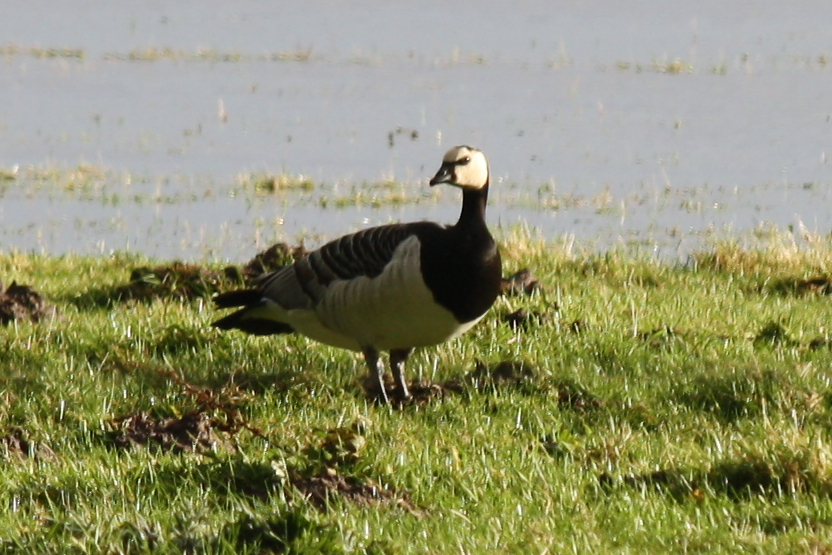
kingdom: Animalia
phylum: Chordata
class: Aves
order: Anseriformes
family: Anatidae
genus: Branta
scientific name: Branta leucopsis
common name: Barnacle goose
